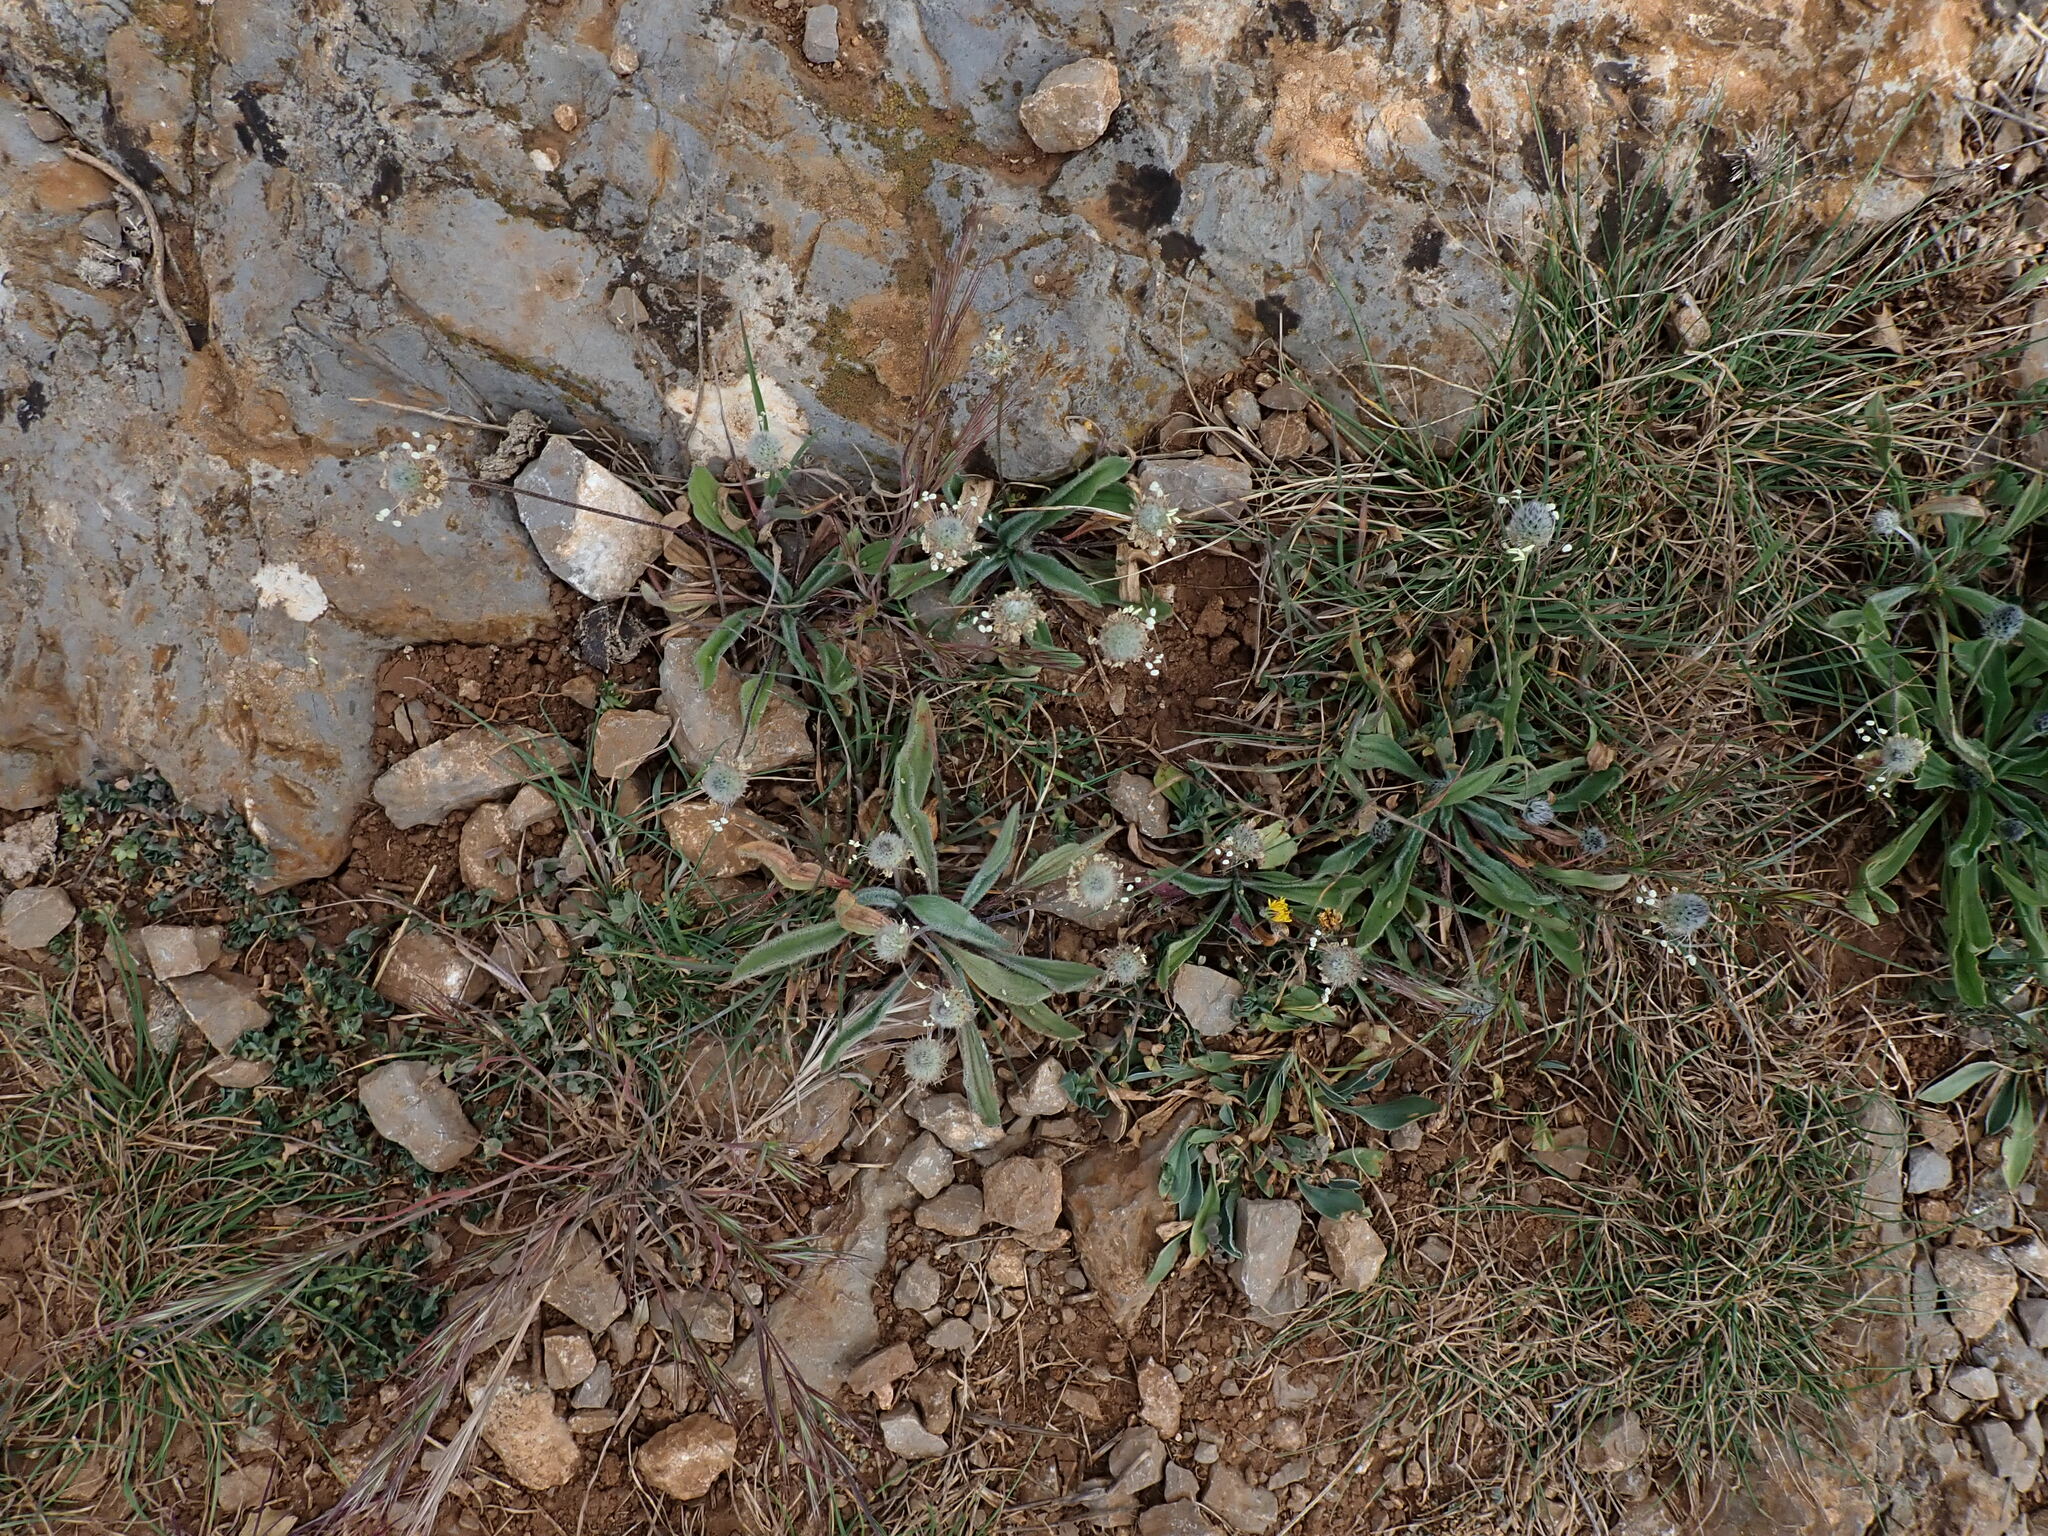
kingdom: Plantae
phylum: Tracheophyta
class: Magnoliopsida
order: Lamiales
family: Plantaginaceae
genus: Plantago
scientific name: Plantago lagopus
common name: Hare-foot plantain
